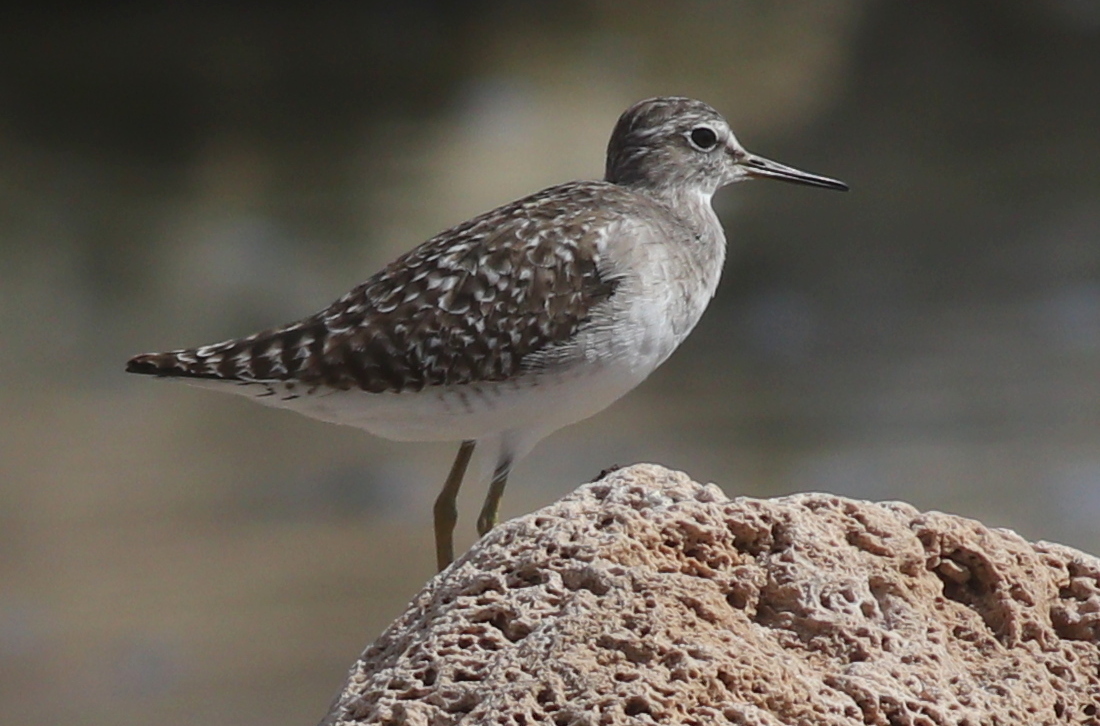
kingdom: Animalia
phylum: Chordata
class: Aves
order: Charadriiformes
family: Scolopacidae
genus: Tringa
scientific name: Tringa glareola
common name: Wood sandpiper
